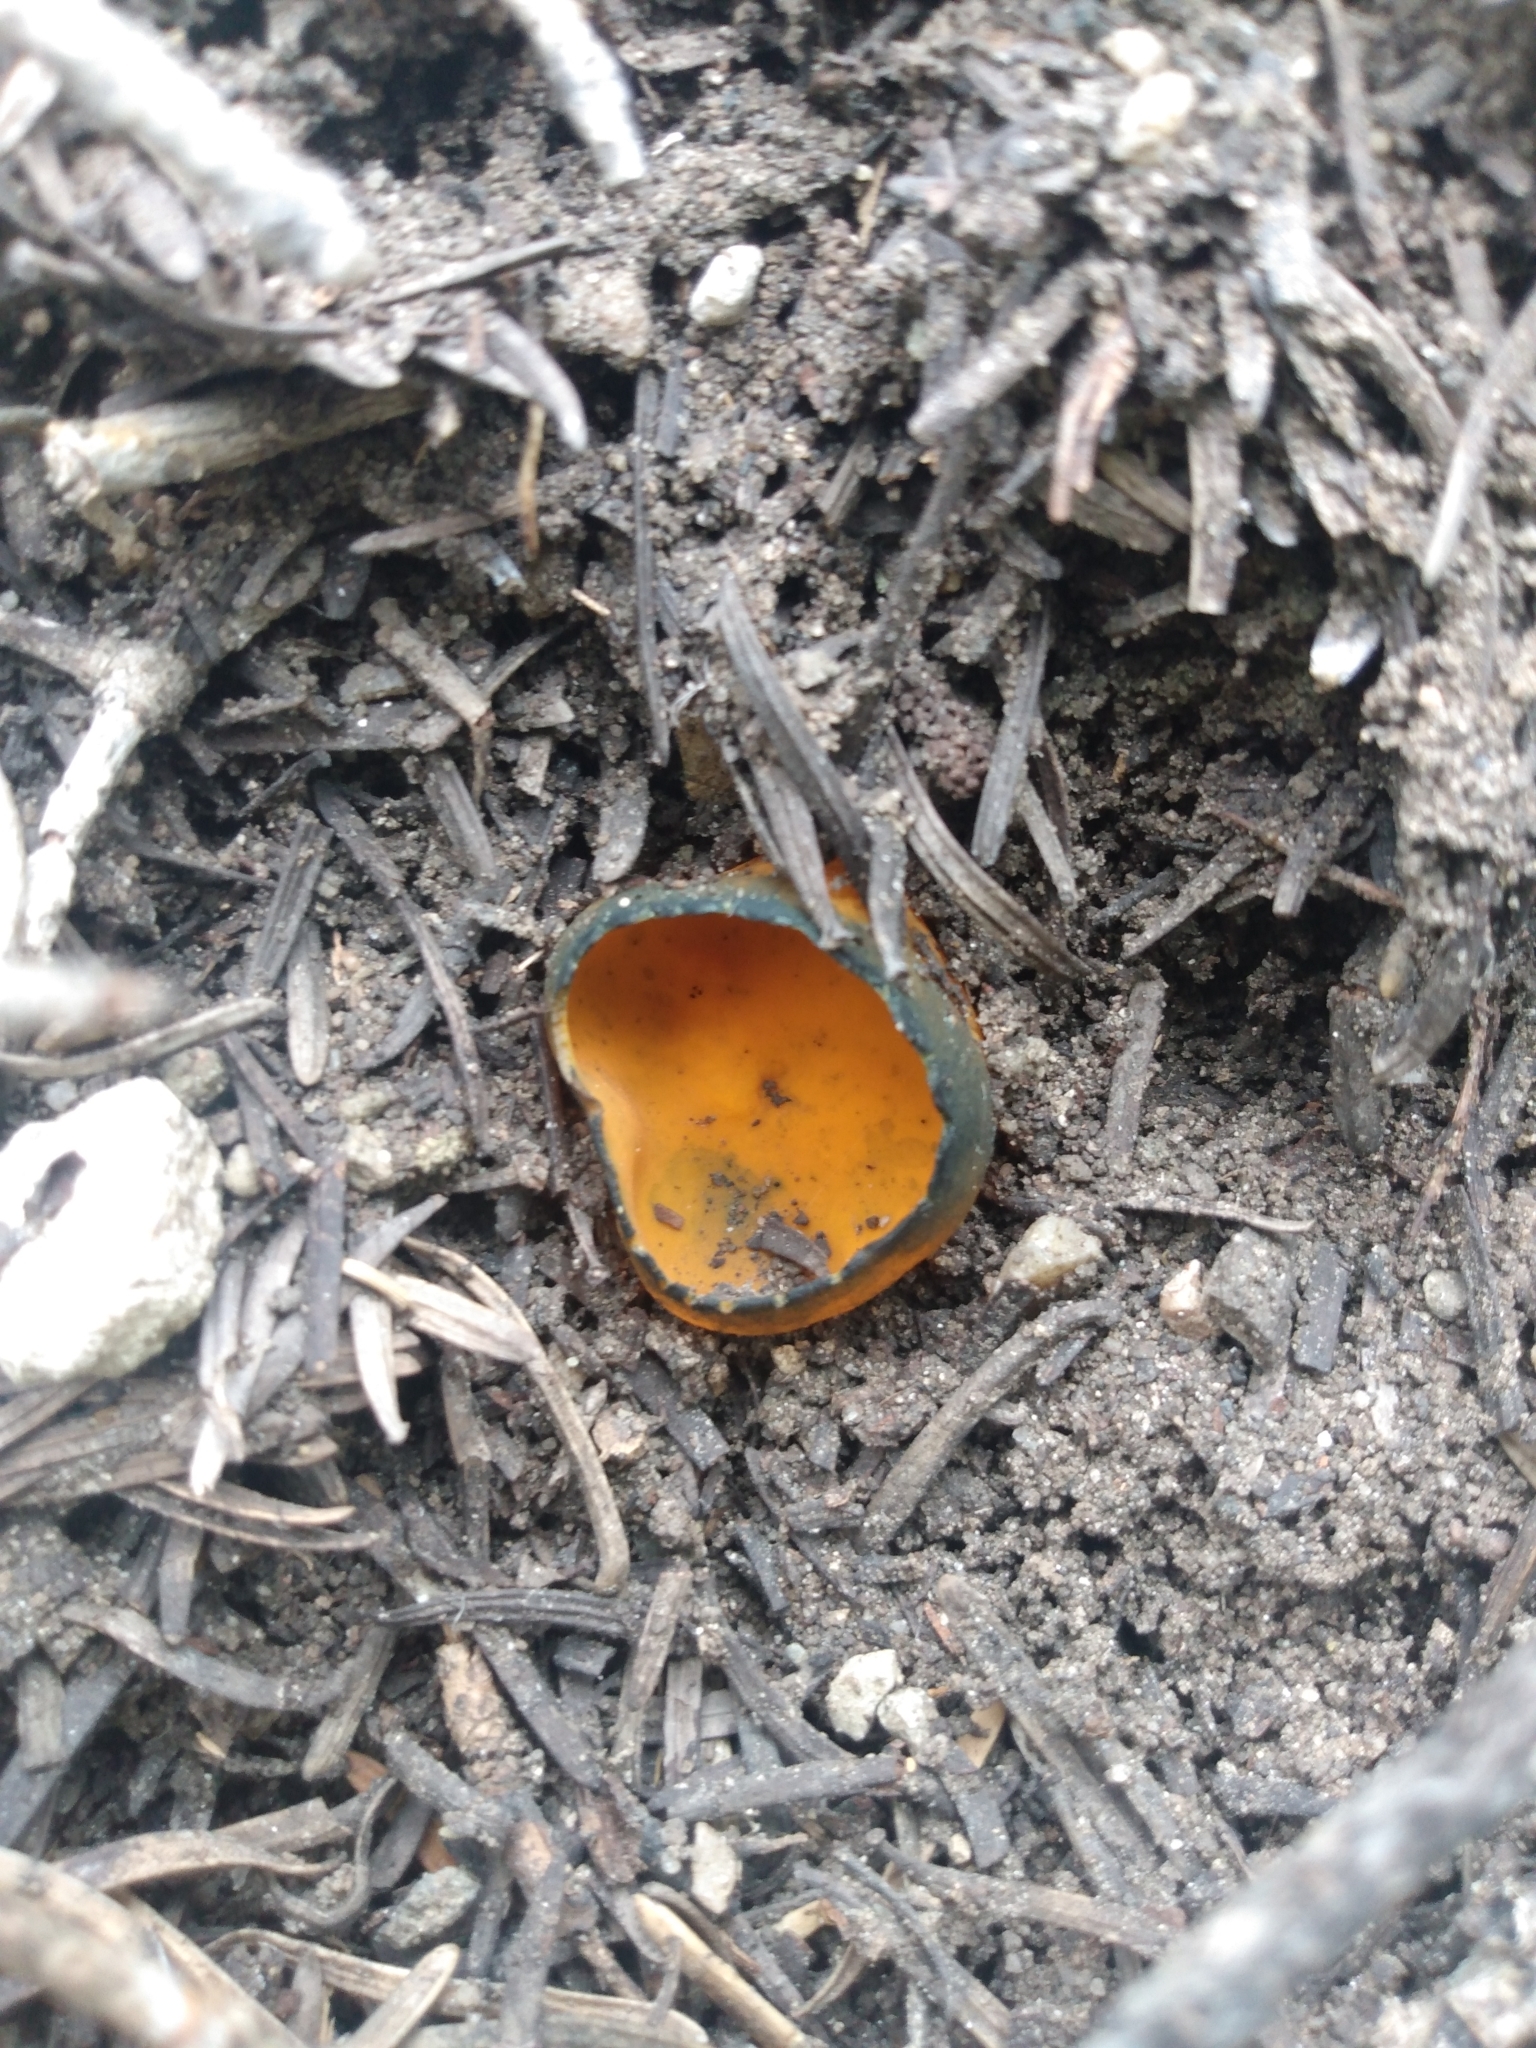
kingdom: Fungi
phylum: Ascomycota
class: Pezizomycetes
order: Pezizales
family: Caloscyphaceae
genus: Caloscypha
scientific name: Caloscypha fulgens
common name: Golden cup
